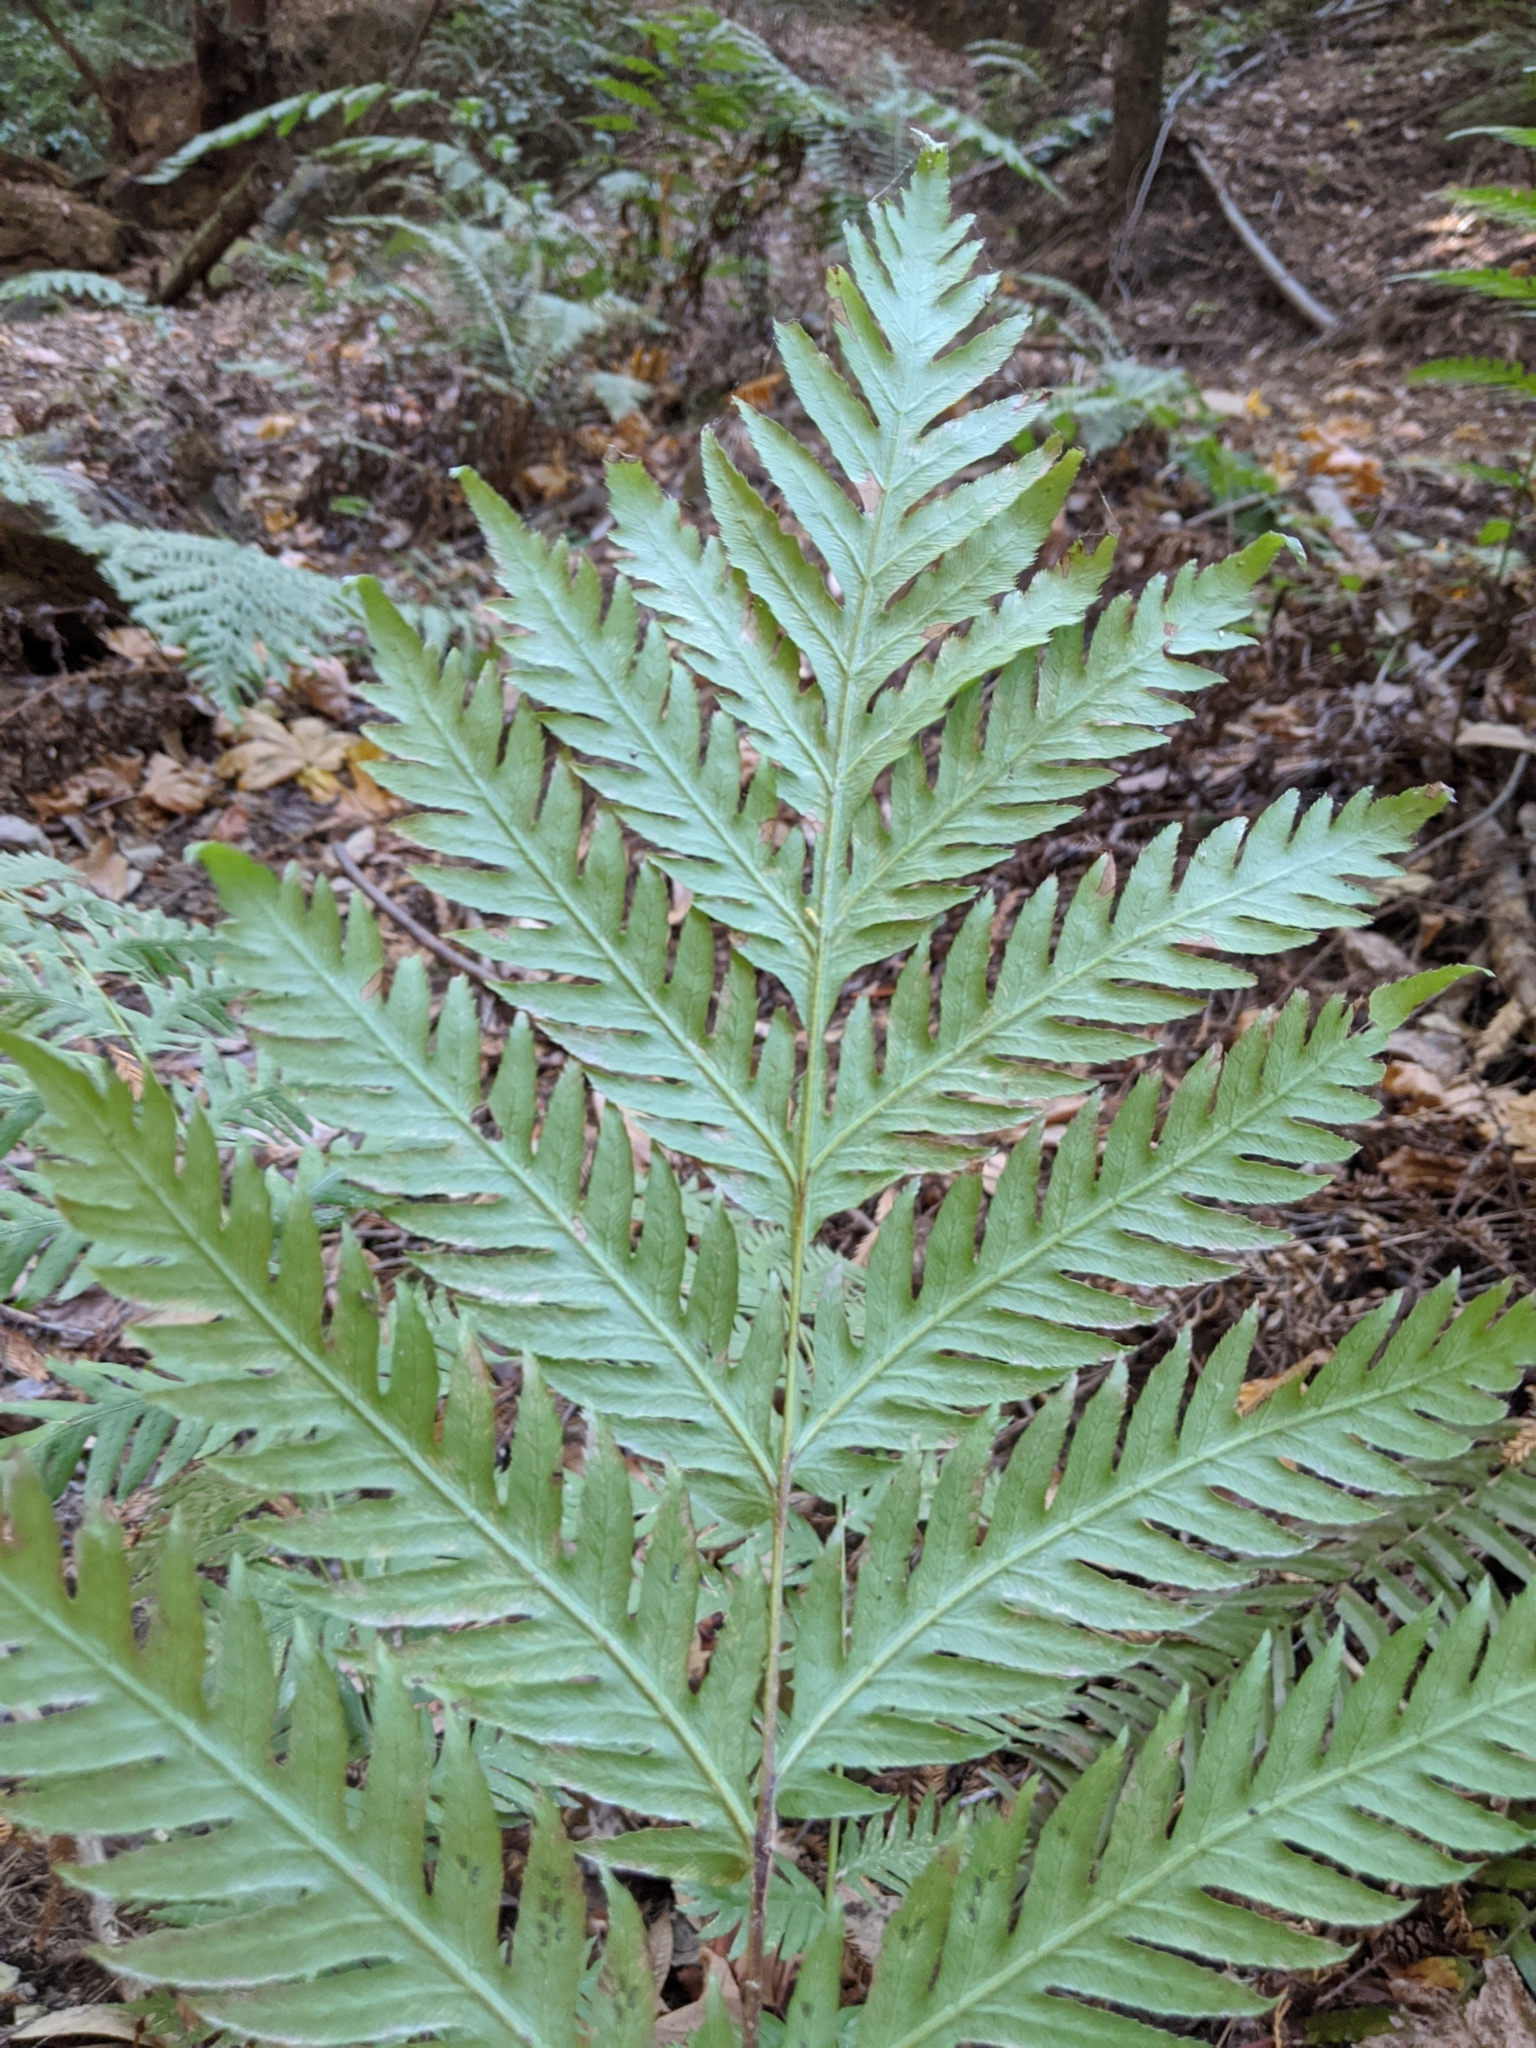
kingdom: Plantae
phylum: Tracheophyta
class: Polypodiopsida
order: Polypodiales
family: Blechnaceae
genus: Woodwardia
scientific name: Woodwardia fimbriata
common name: Giant chain fern
